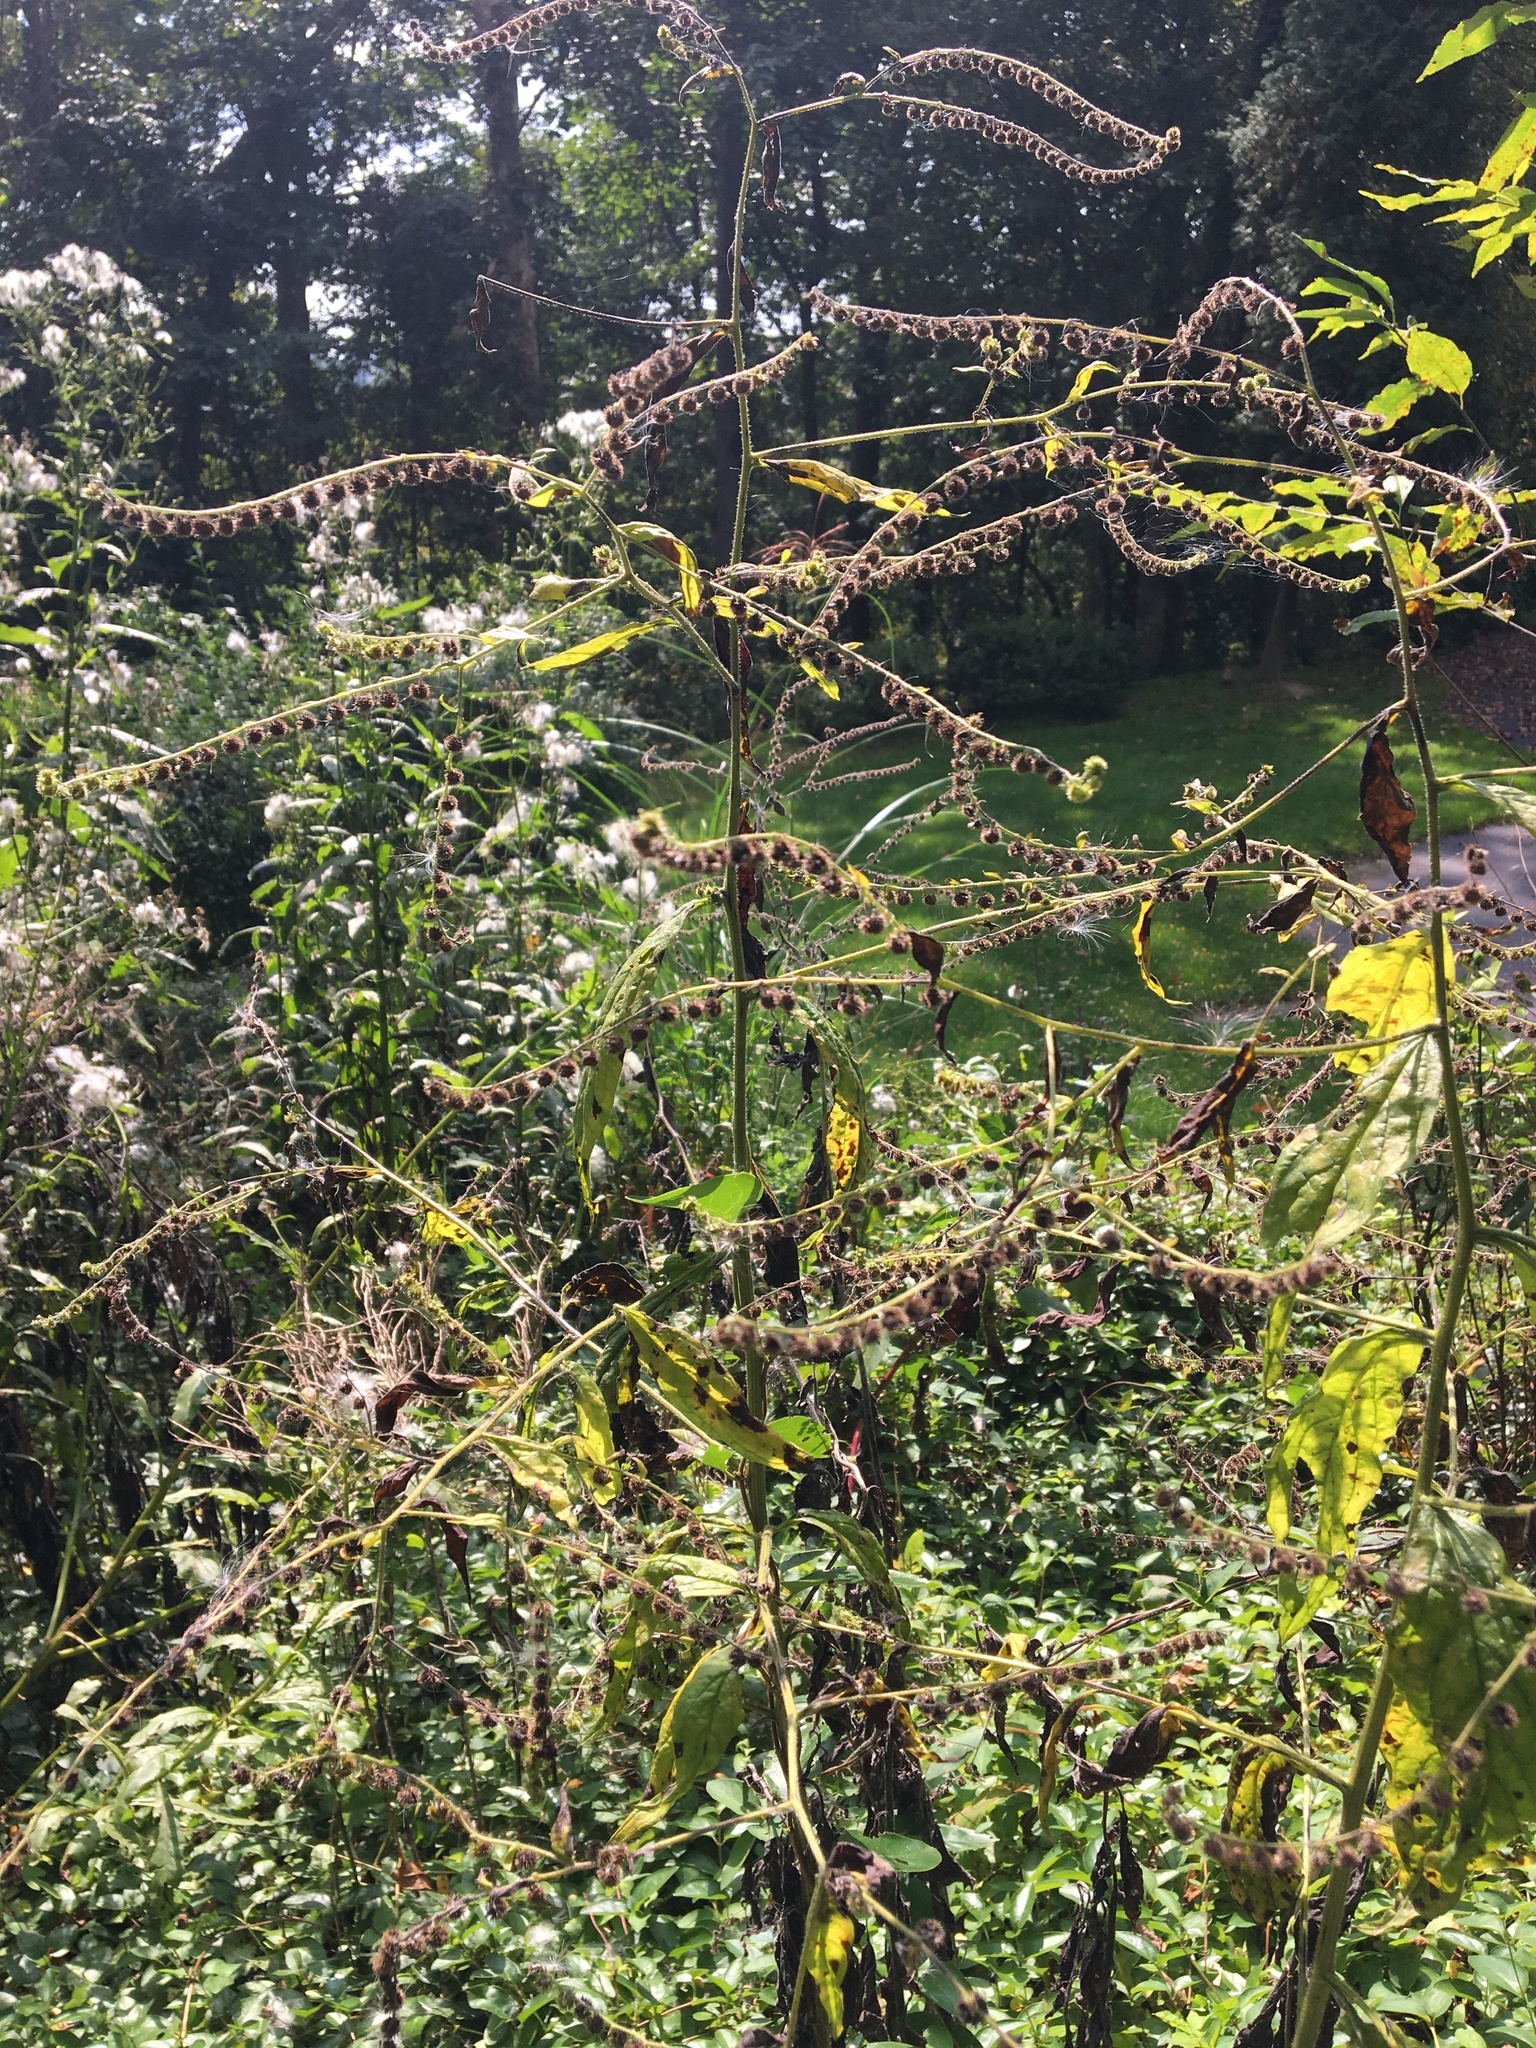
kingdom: Plantae
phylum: Tracheophyta
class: Magnoliopsida
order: Boraginales
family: Boraginaceae
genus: Hackelia
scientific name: Hackelia virginiana
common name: Beggar's-lice
